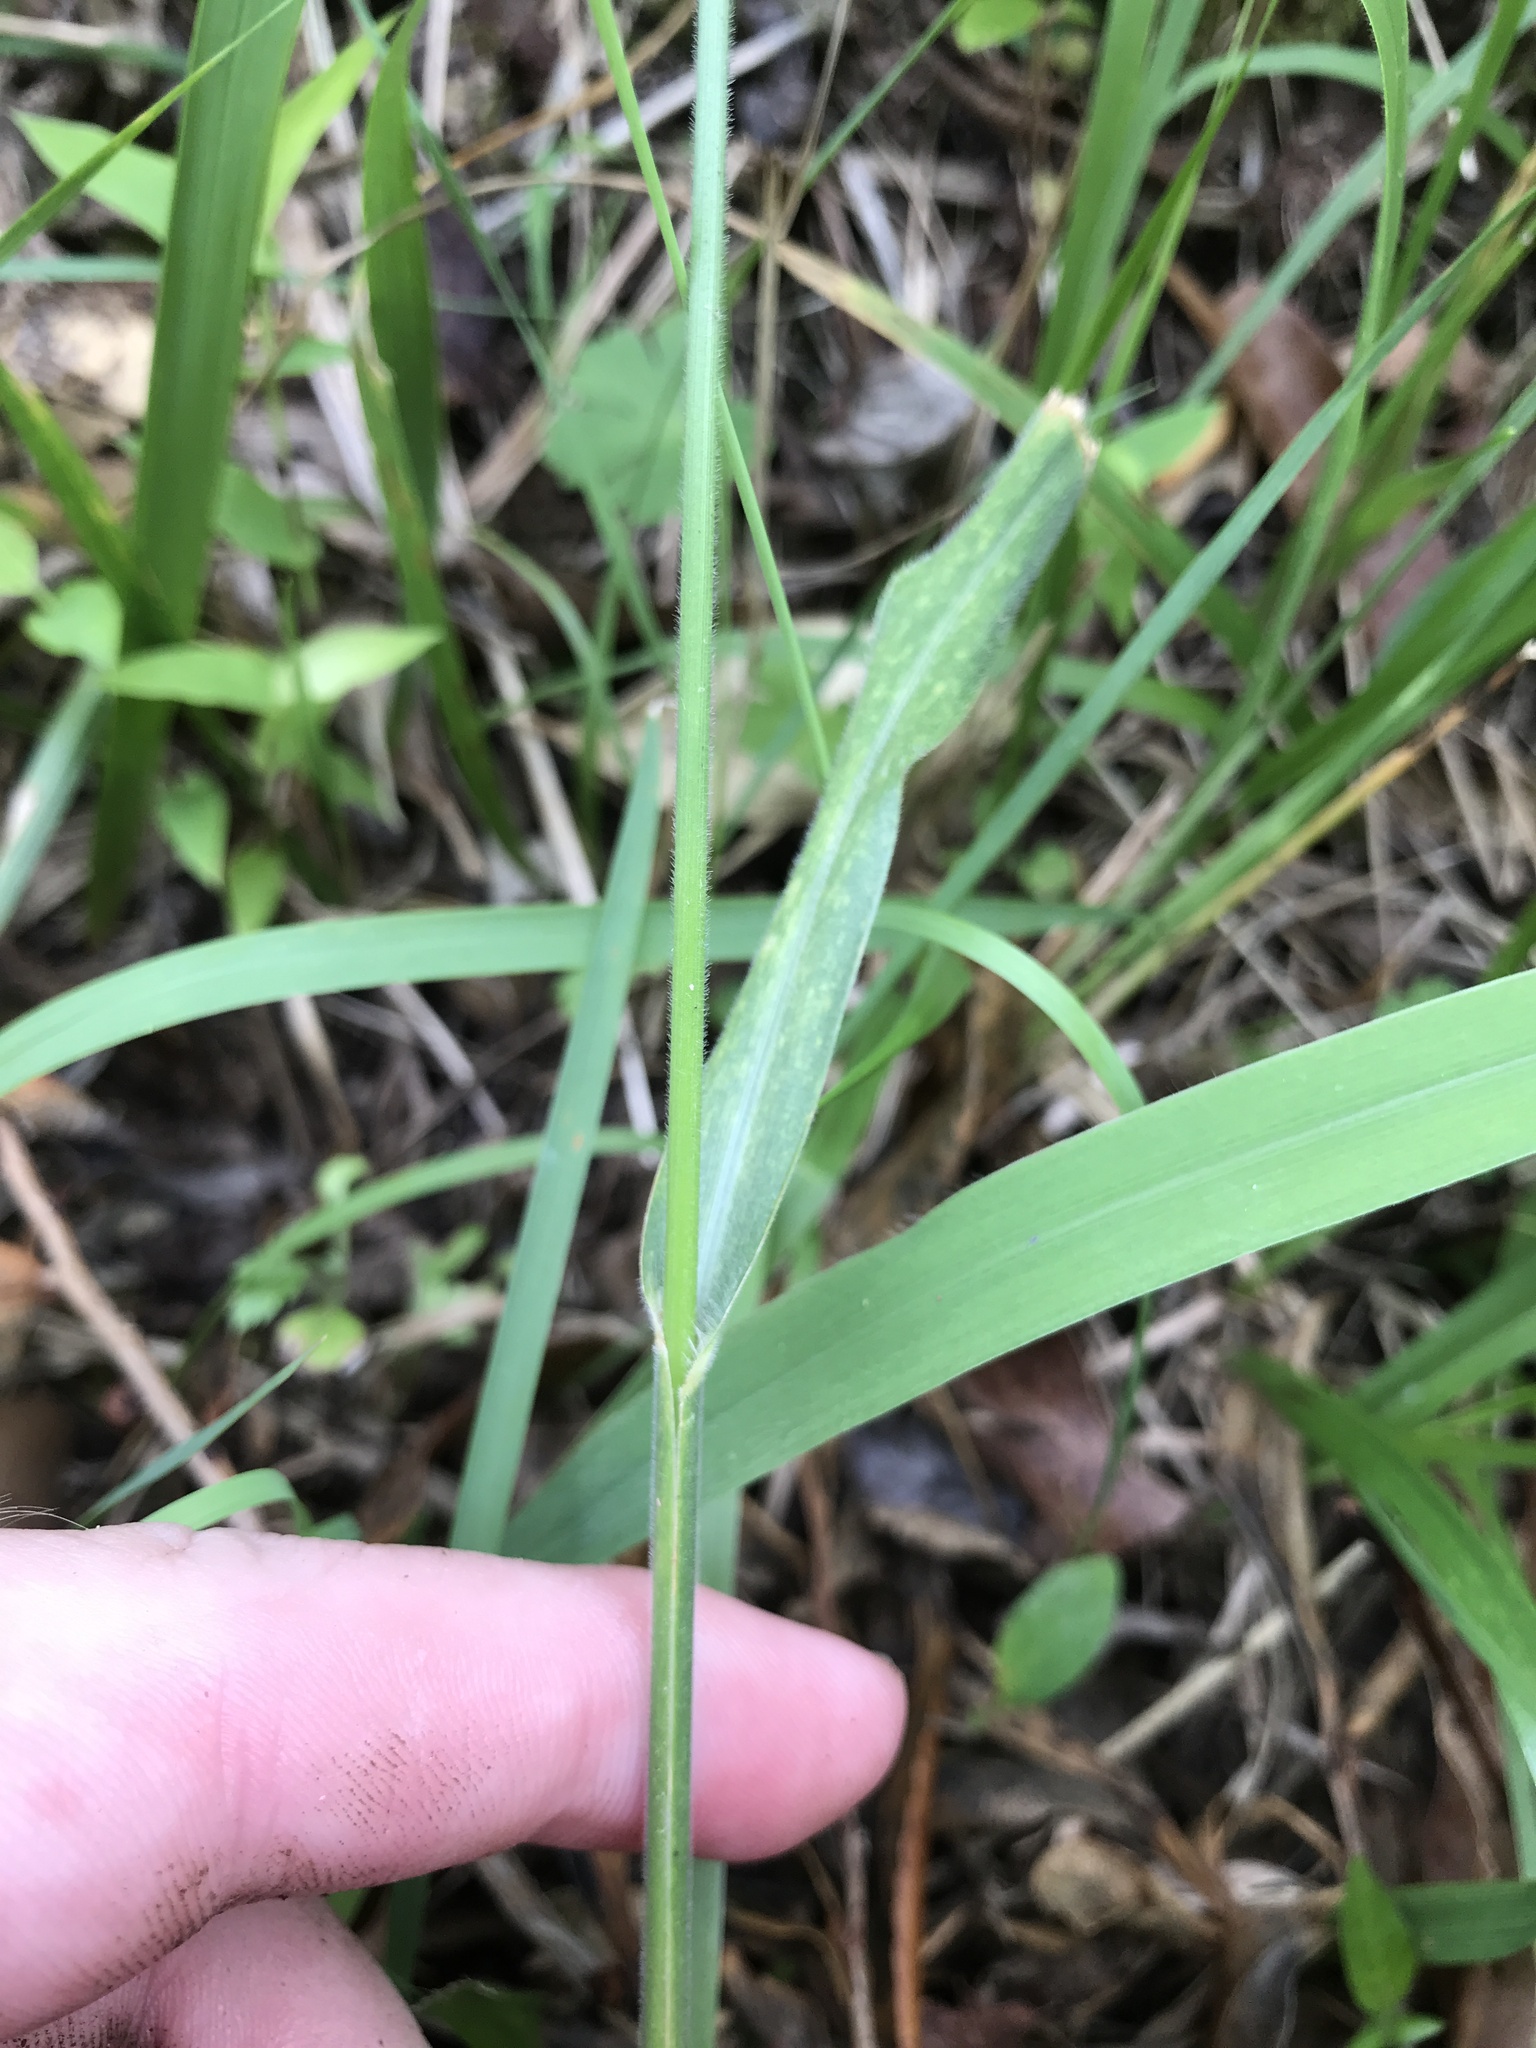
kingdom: Plantae
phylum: Tracheophyta
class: Liliopsida
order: Poales
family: Poaceae
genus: Arundinella
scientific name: Arundinella hirta
